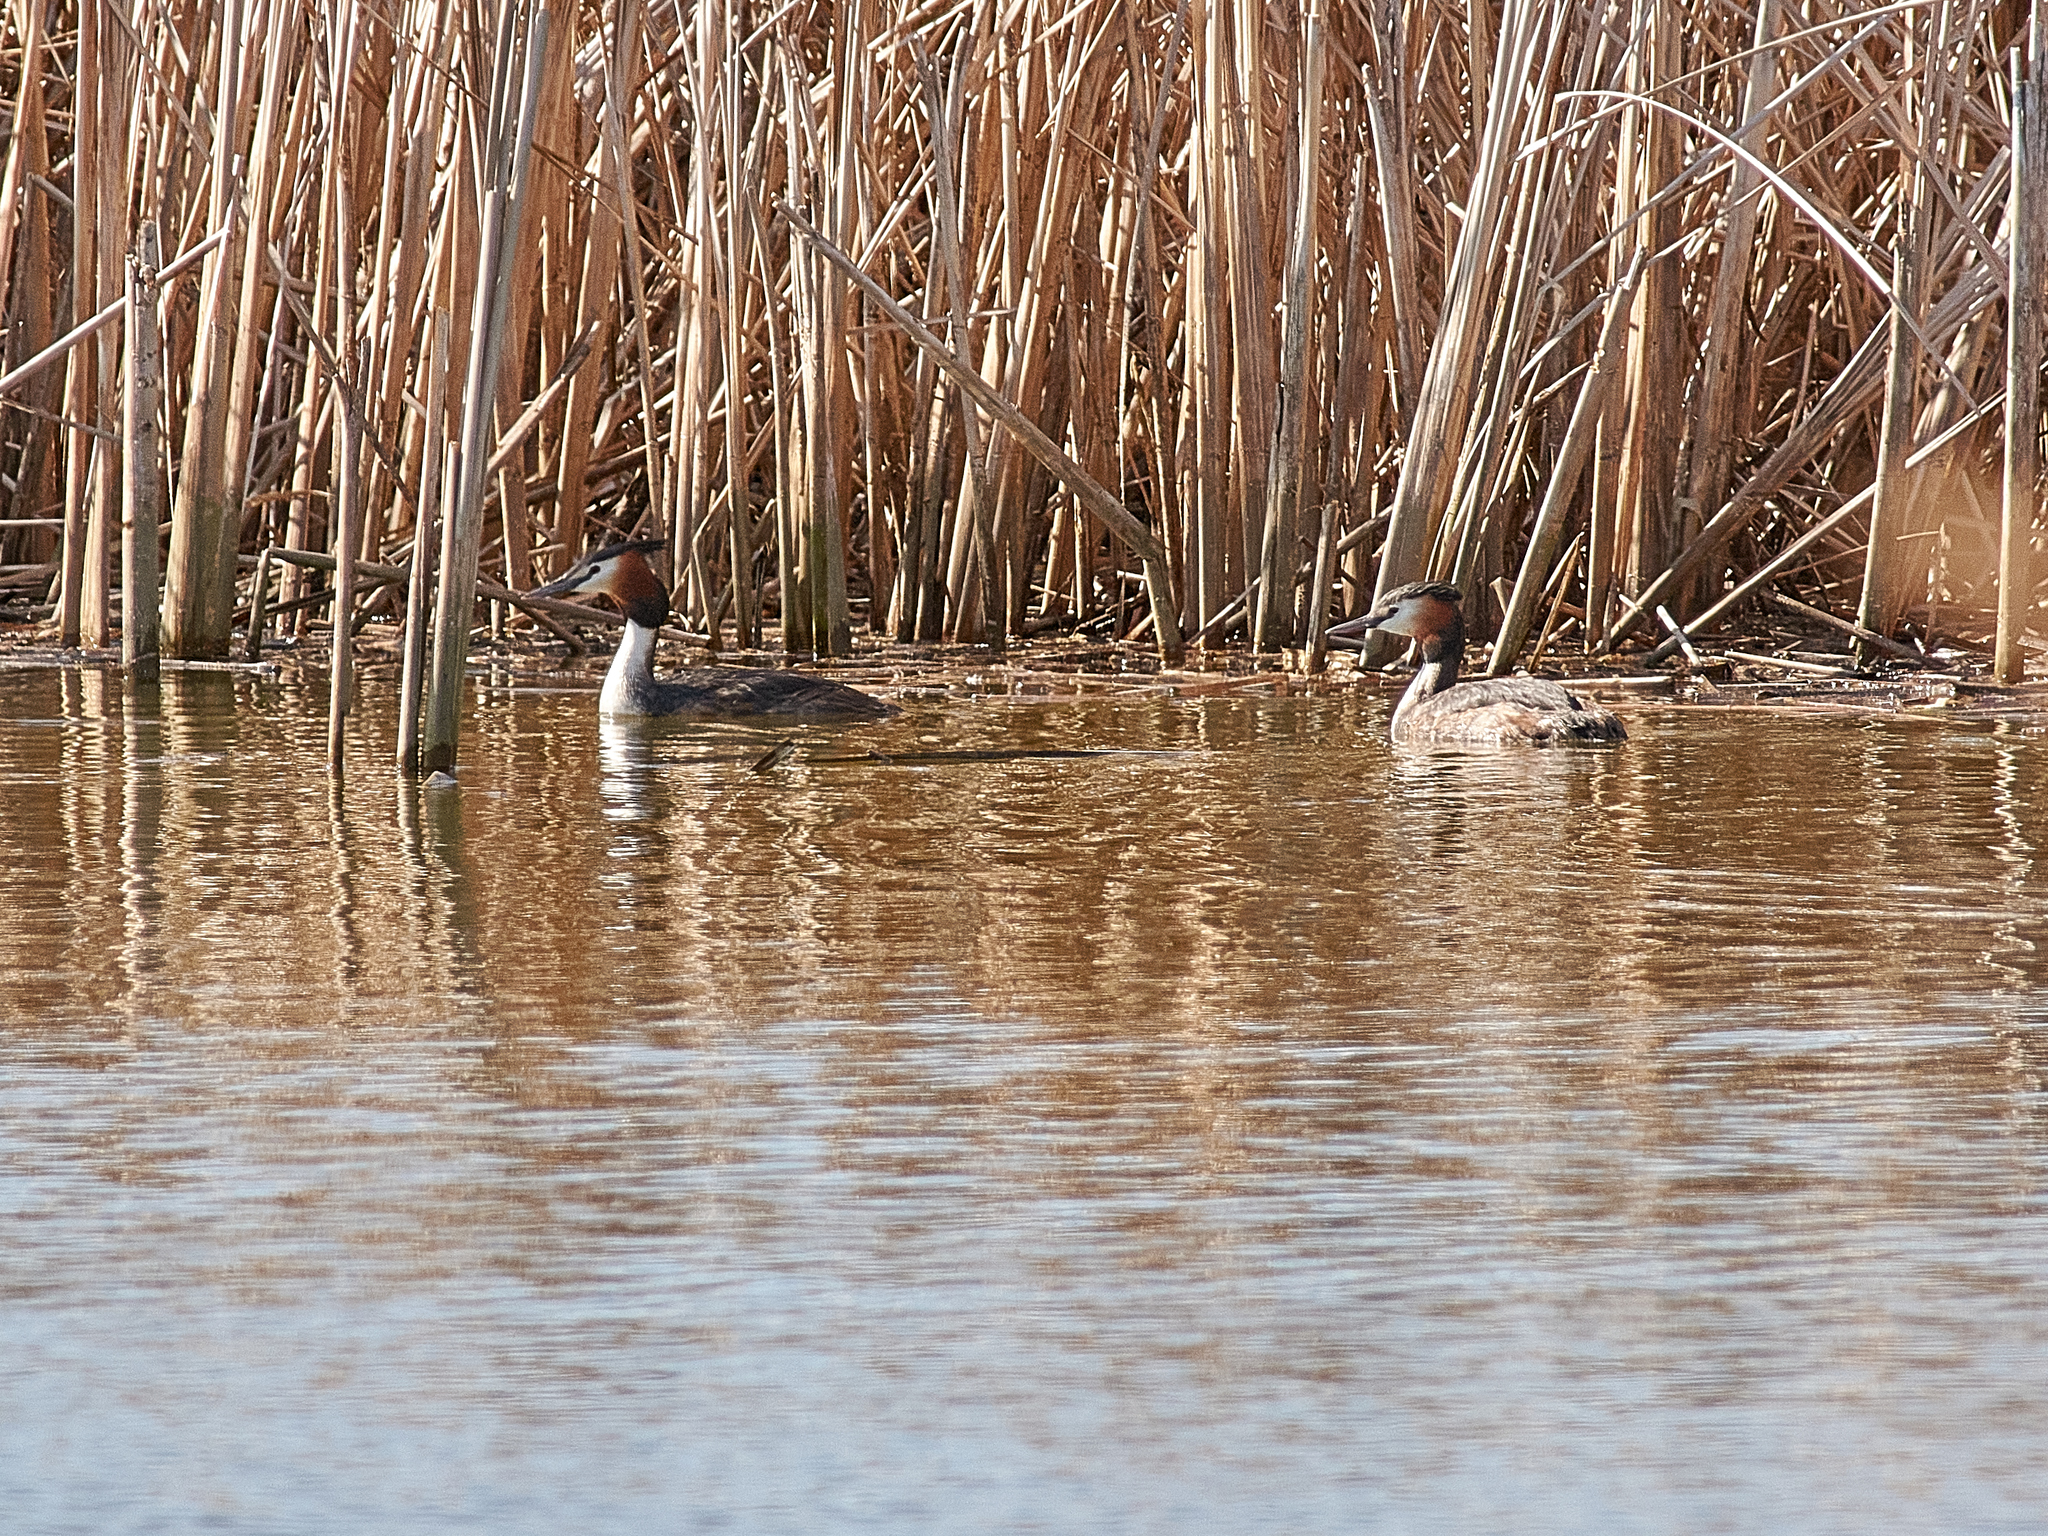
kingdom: Animalia
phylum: Chordata
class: Aves
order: Podicipediformes
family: Podicipedidae
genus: Podiceps
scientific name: Podiceps cristatus
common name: Great crested grebe
